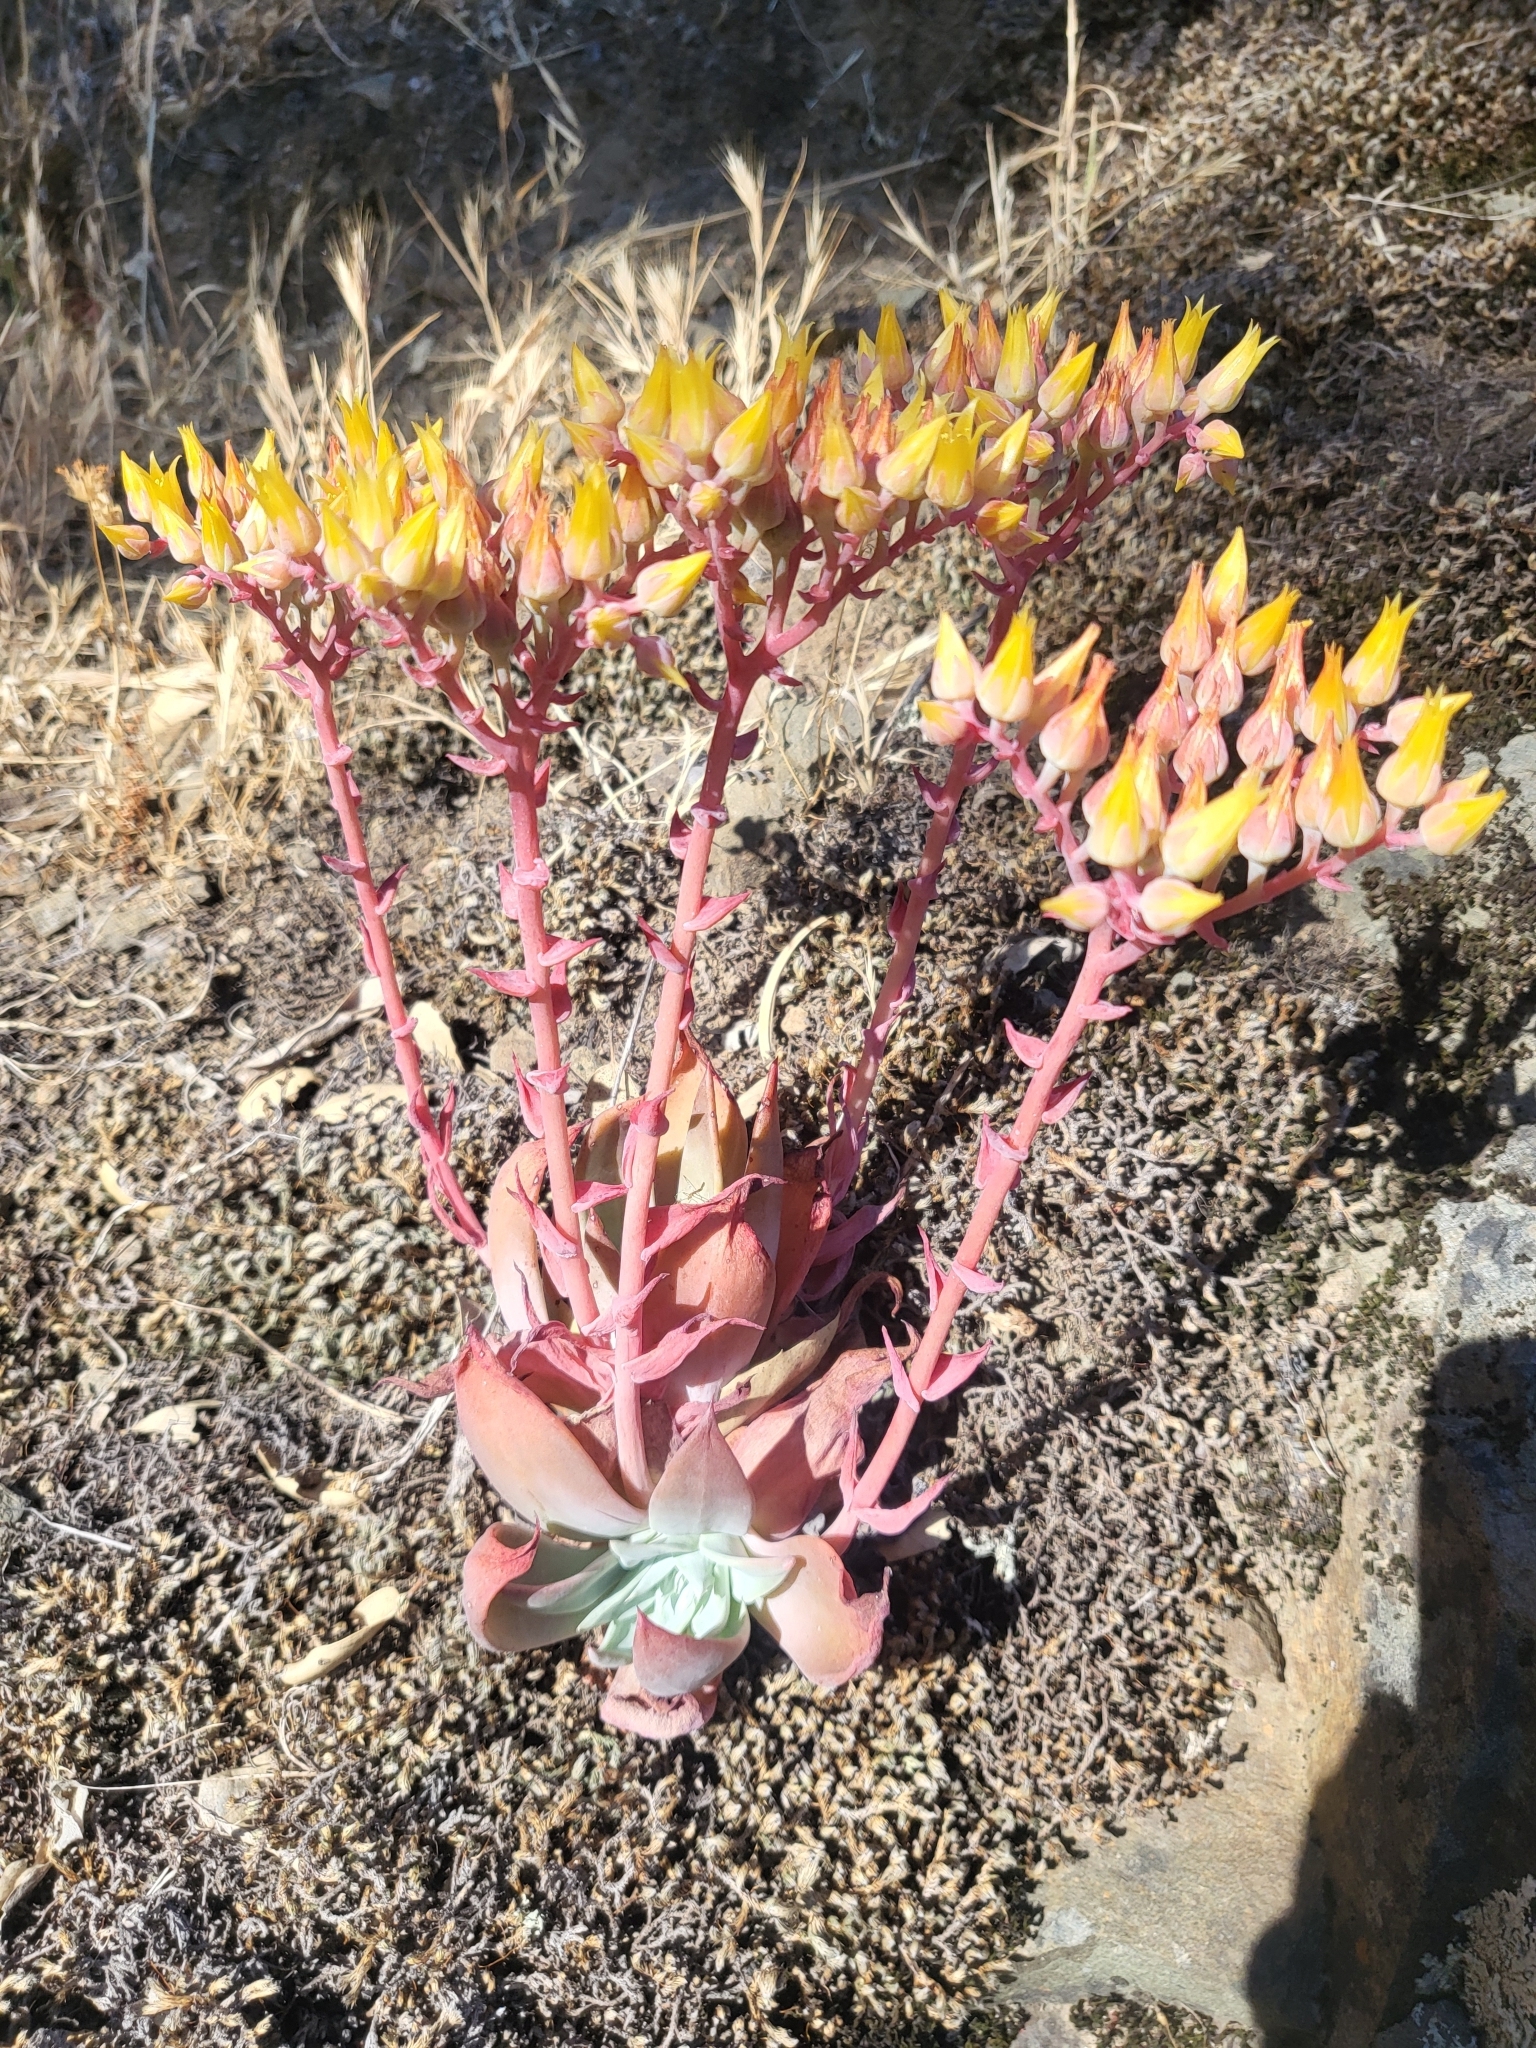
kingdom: Plantae
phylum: Tracheophyta
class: Magnoliopsida
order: Saxifragales
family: Crassulaceae
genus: Dudleya
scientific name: Dudleya cymosa
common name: Canyon dudleya
